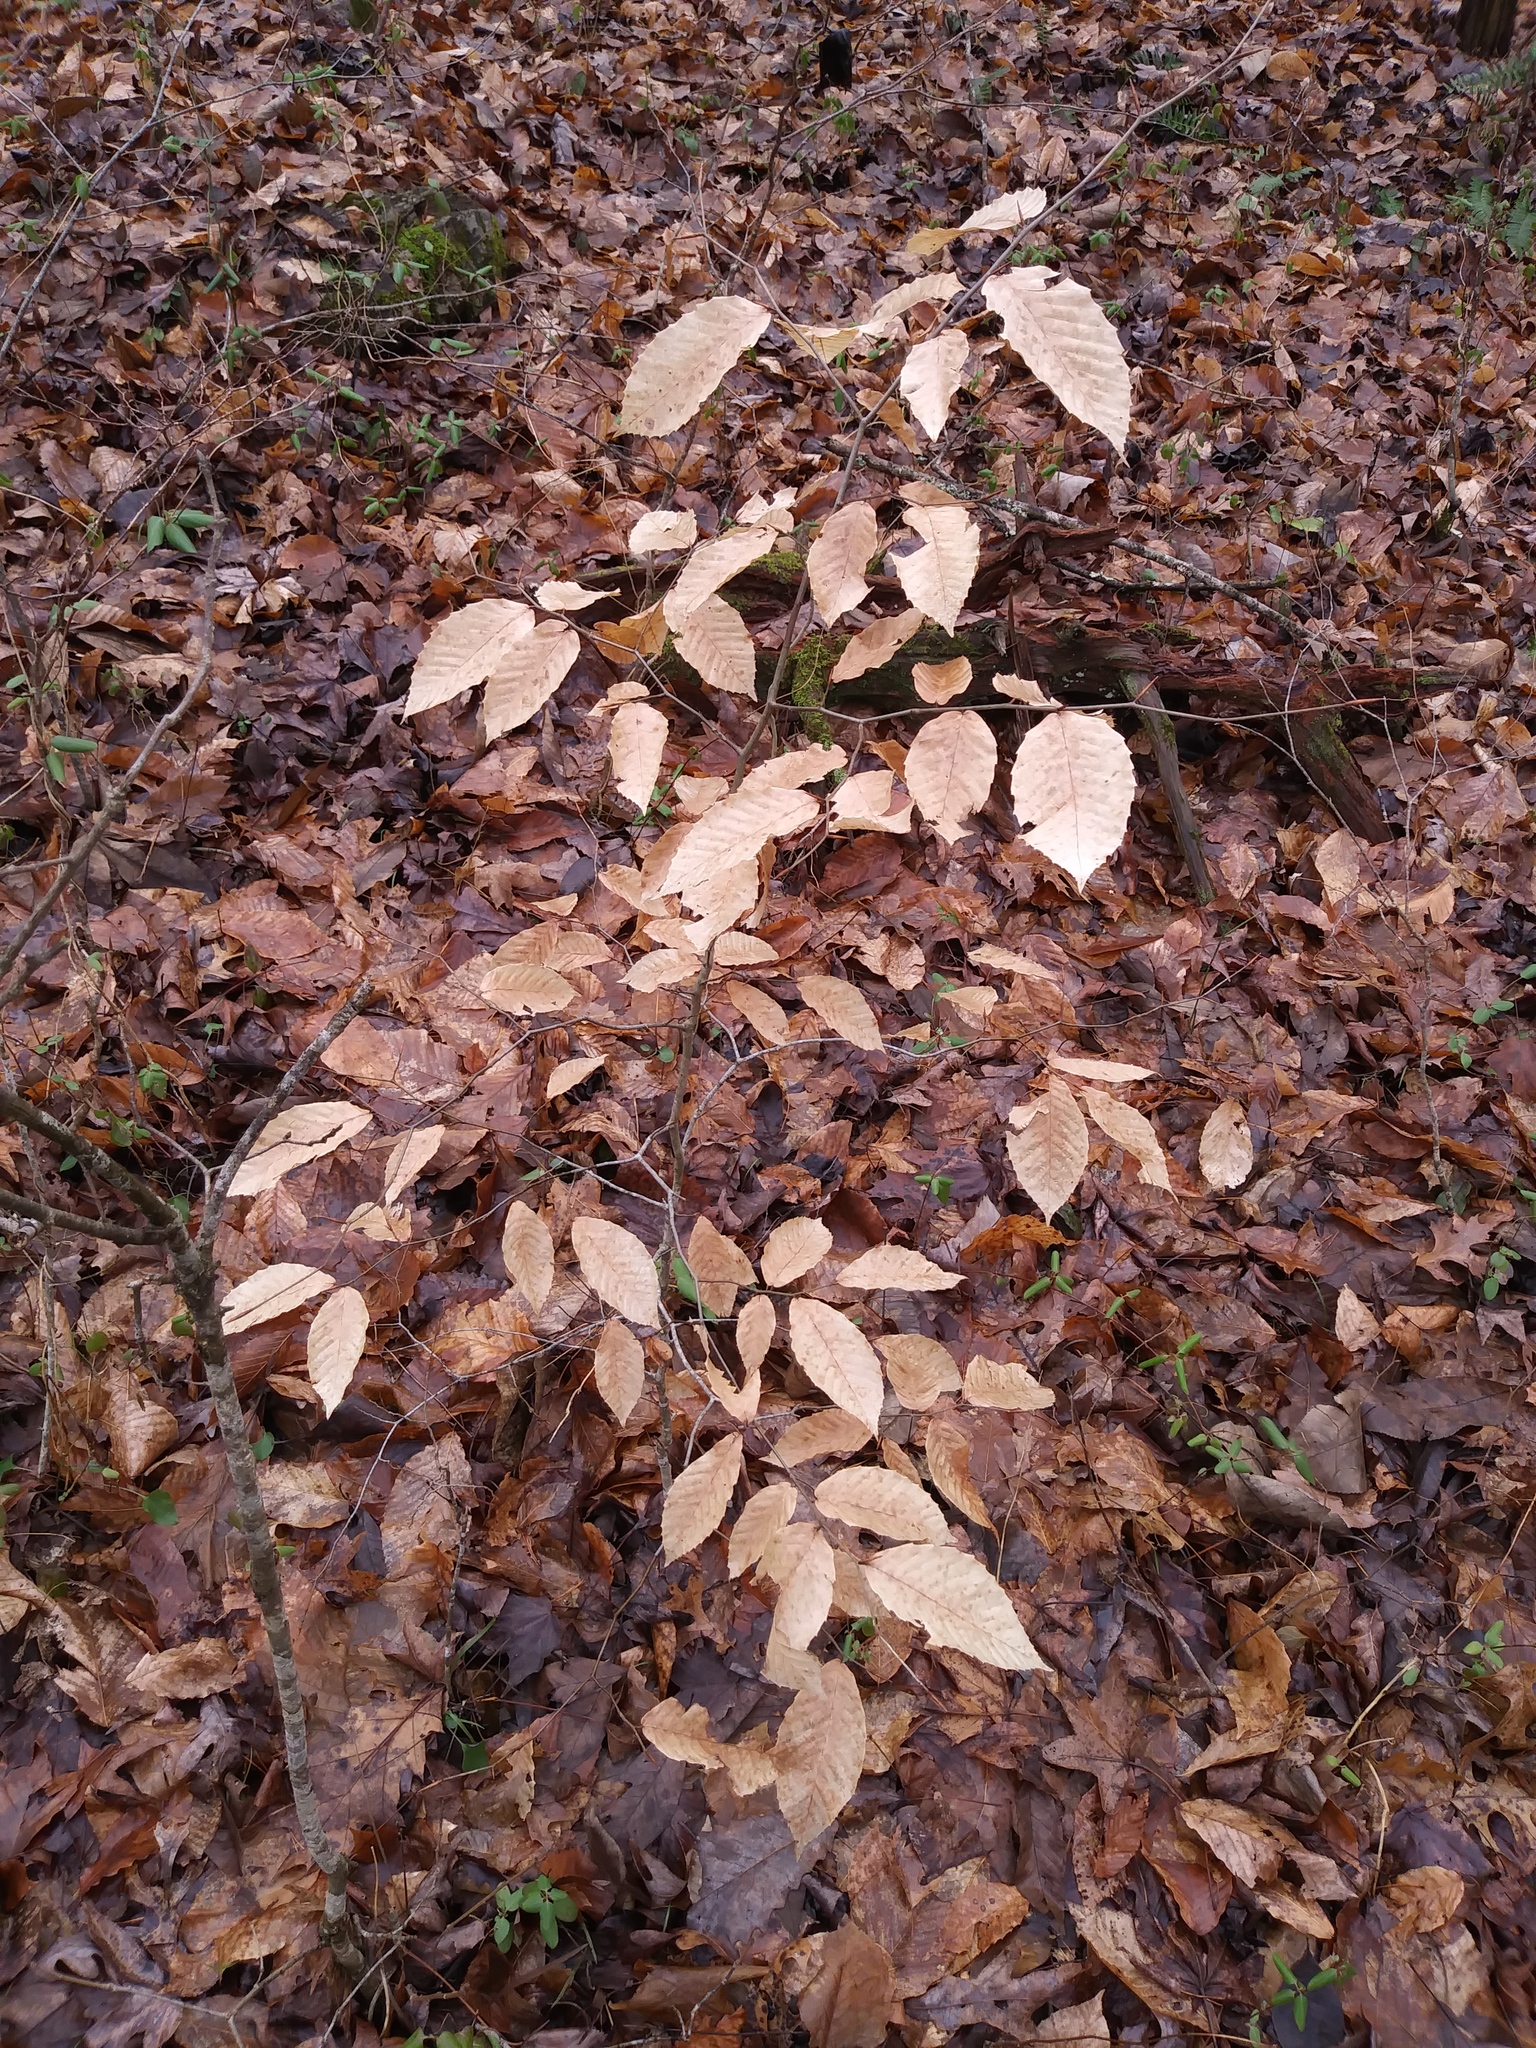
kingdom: Plantae
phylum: Tracheophyta
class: Magnoliopsida
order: Fagales
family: Fagaceae
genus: Fagus
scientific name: Fagus grandifolia
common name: American beech
